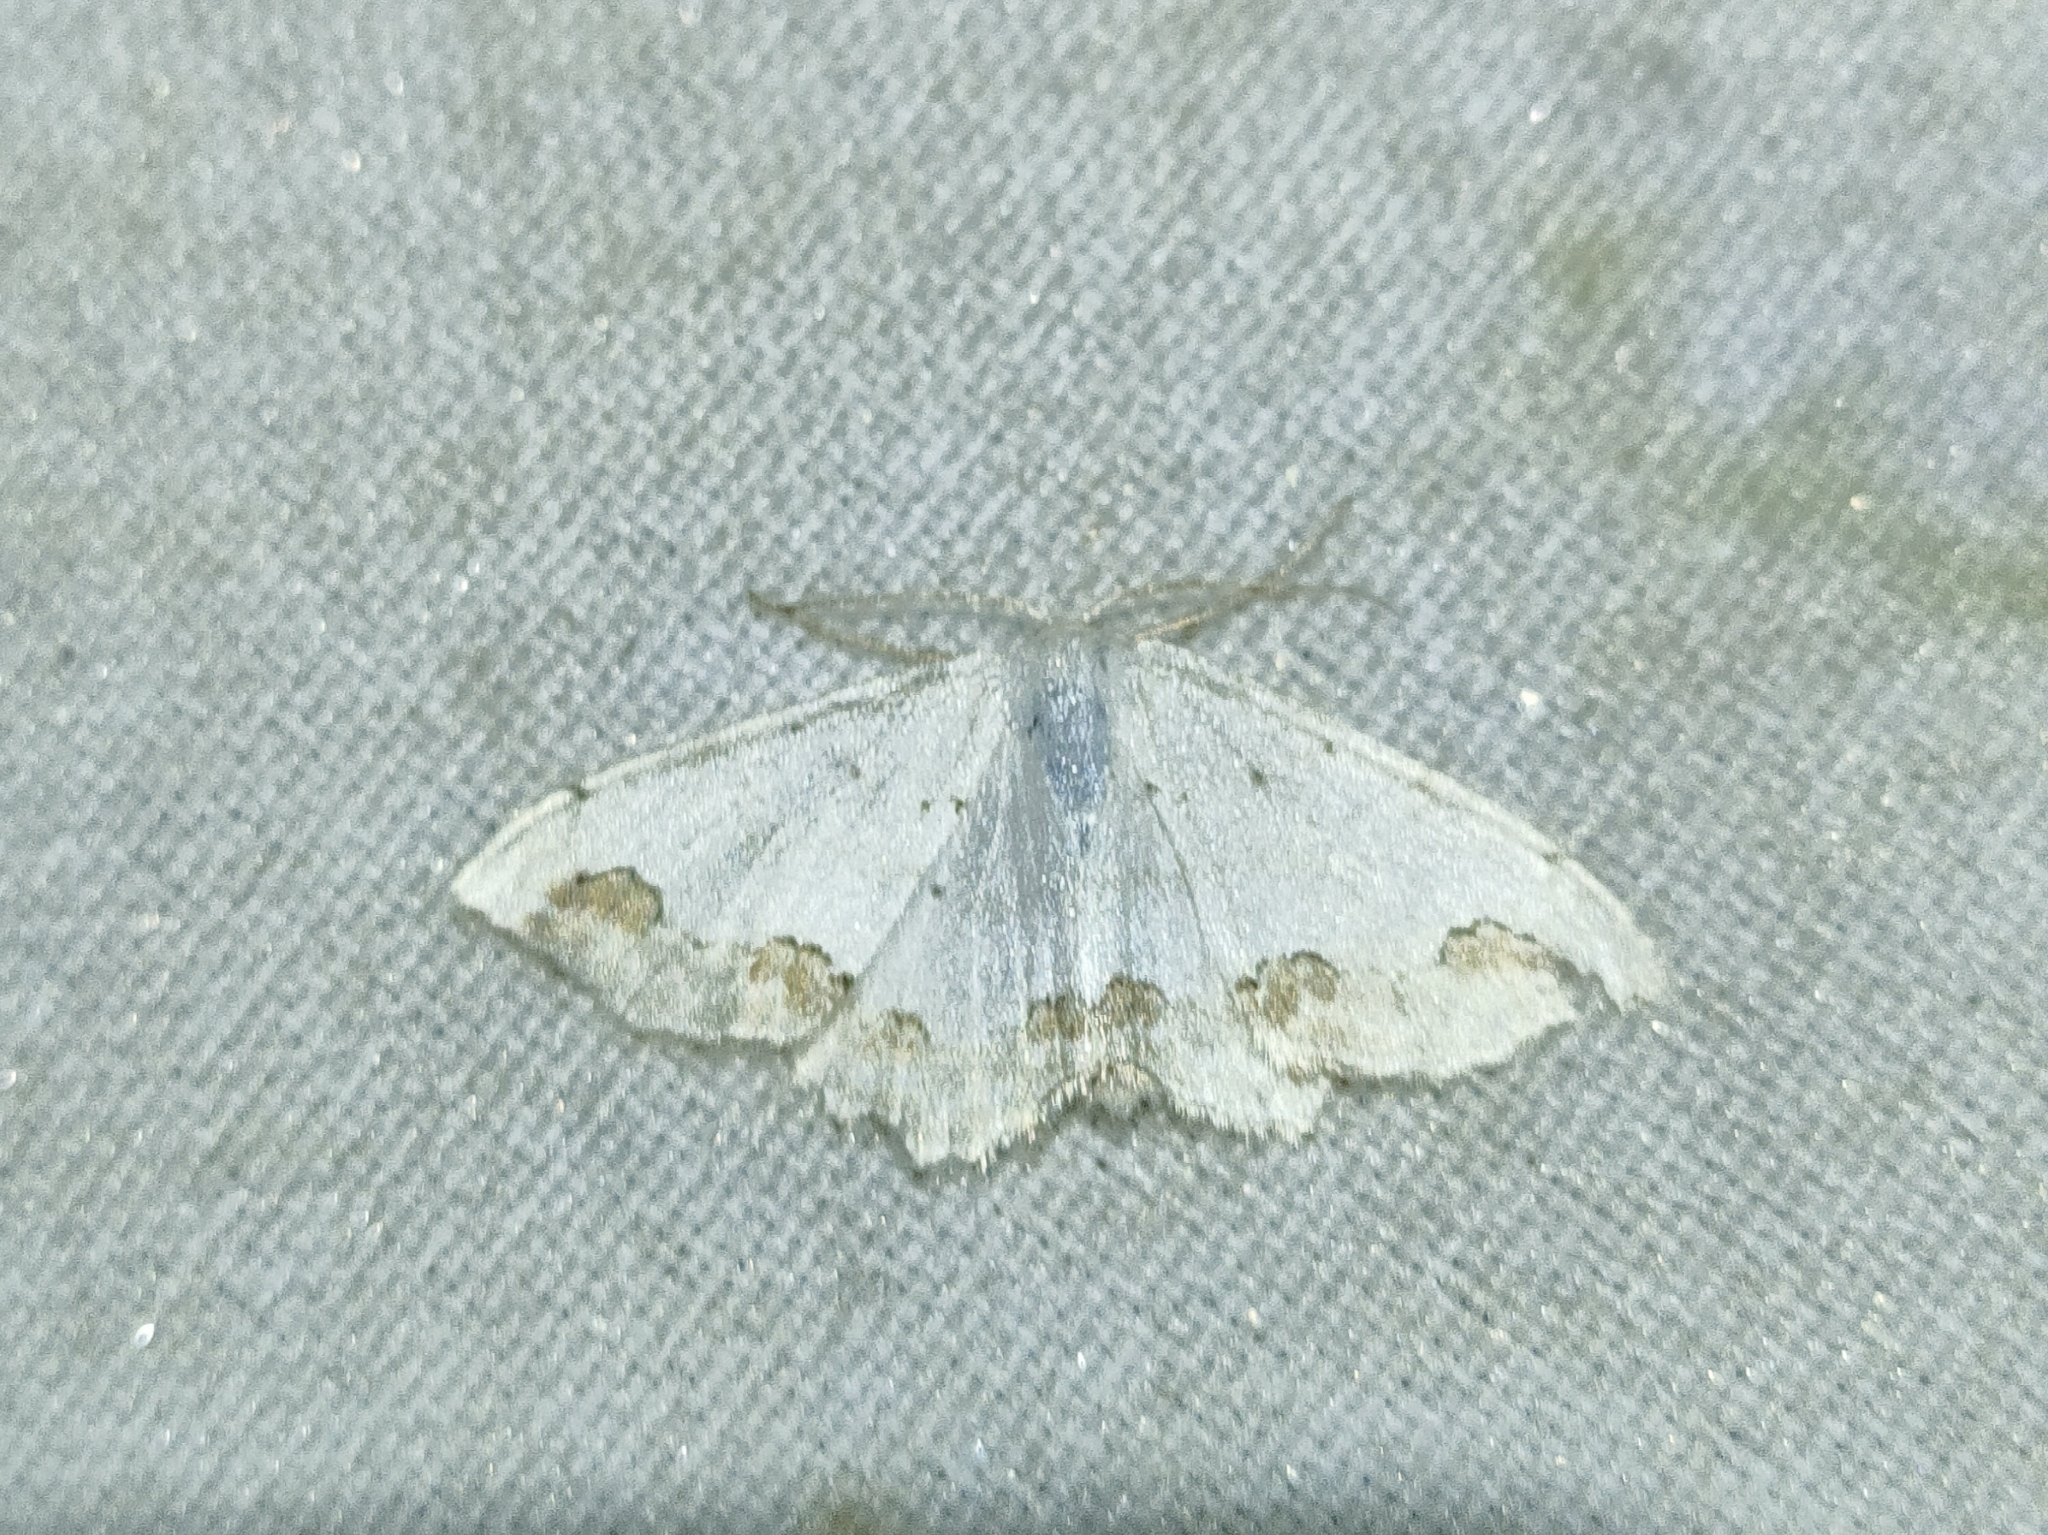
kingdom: Animalia
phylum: Arthropoda
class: Insecta
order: Lepidoptera
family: Geometridae
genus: Scopula
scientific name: Scopula ornata
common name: Lace border
